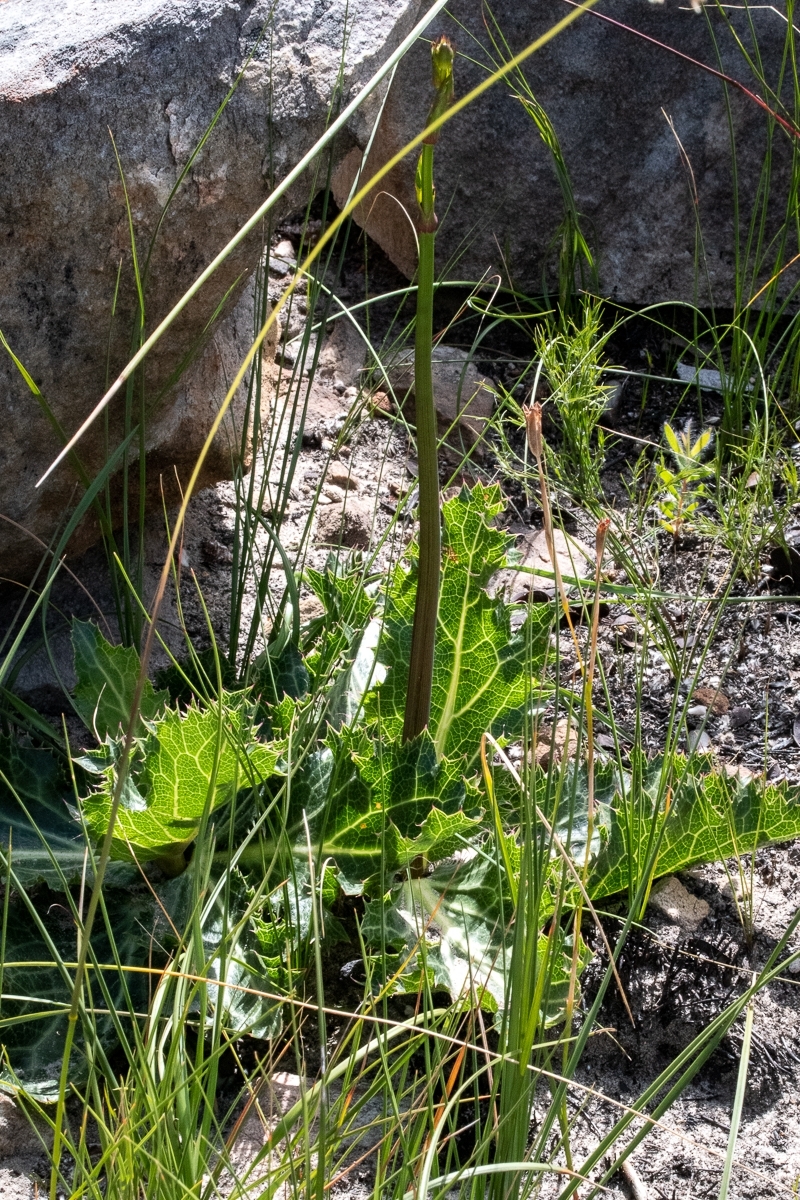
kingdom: Plantae
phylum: Tracheophyta
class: Magnoliopsida
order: Apiales
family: Apiaceae
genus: Lichtensteinia
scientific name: Lichtensteinia lacera
